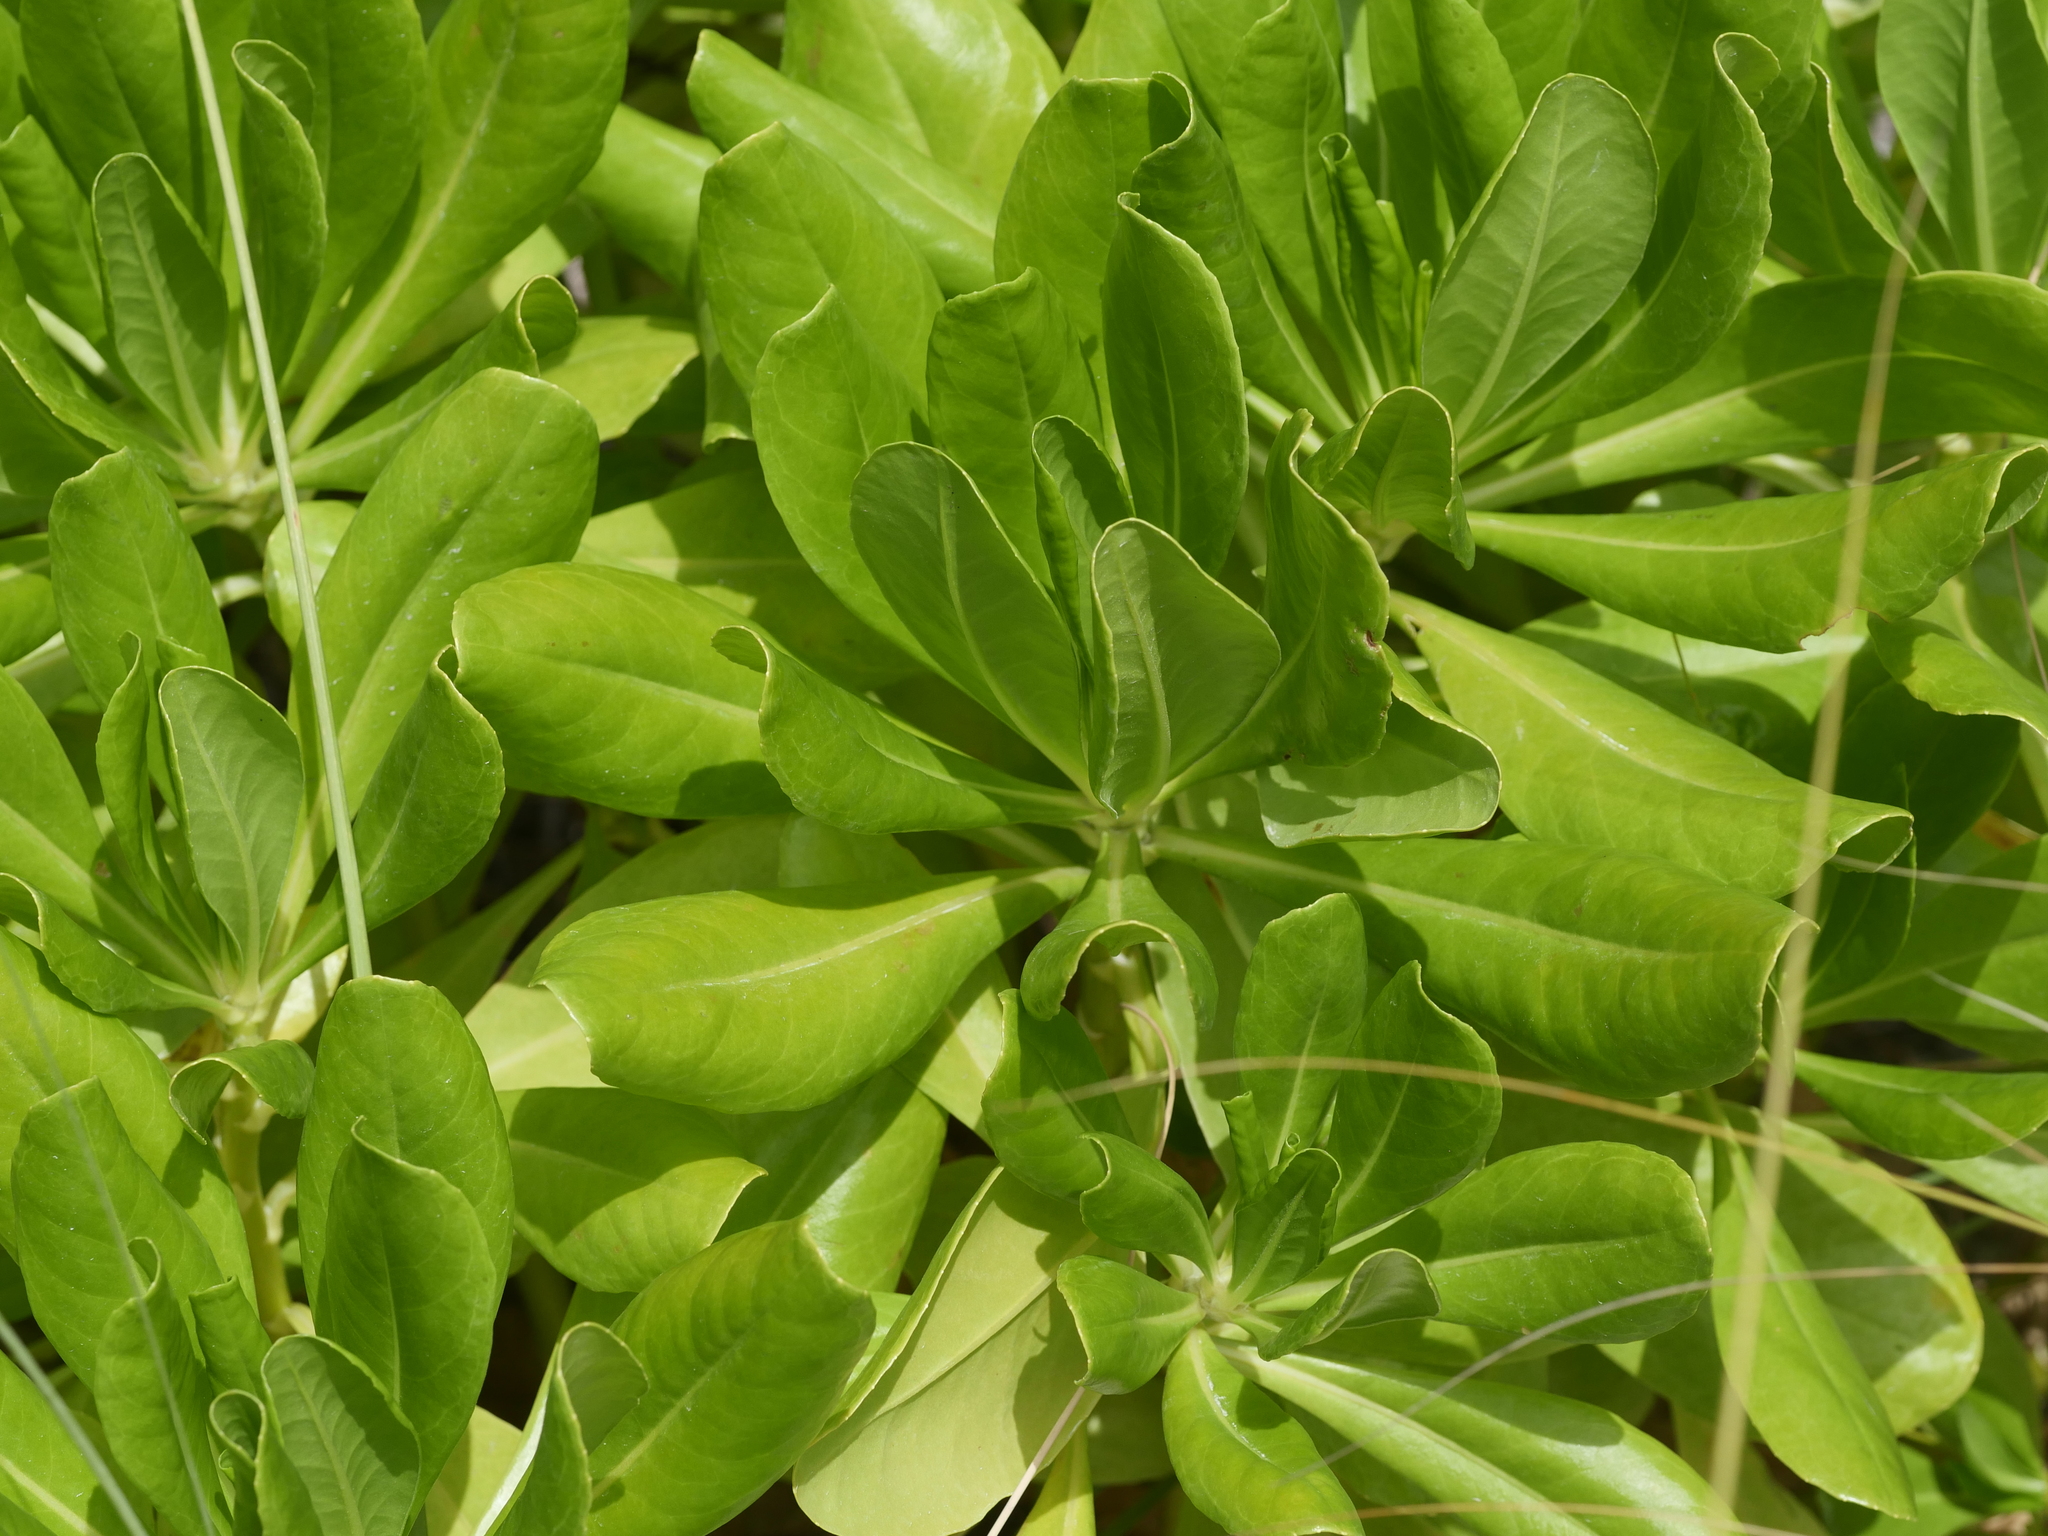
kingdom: Plantae
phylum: Tracheophyta
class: Magnoliopsida
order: Asterales
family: Goodeniaceae
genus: Scaevola
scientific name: Scaevola taccada
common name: Sea lettucetree
